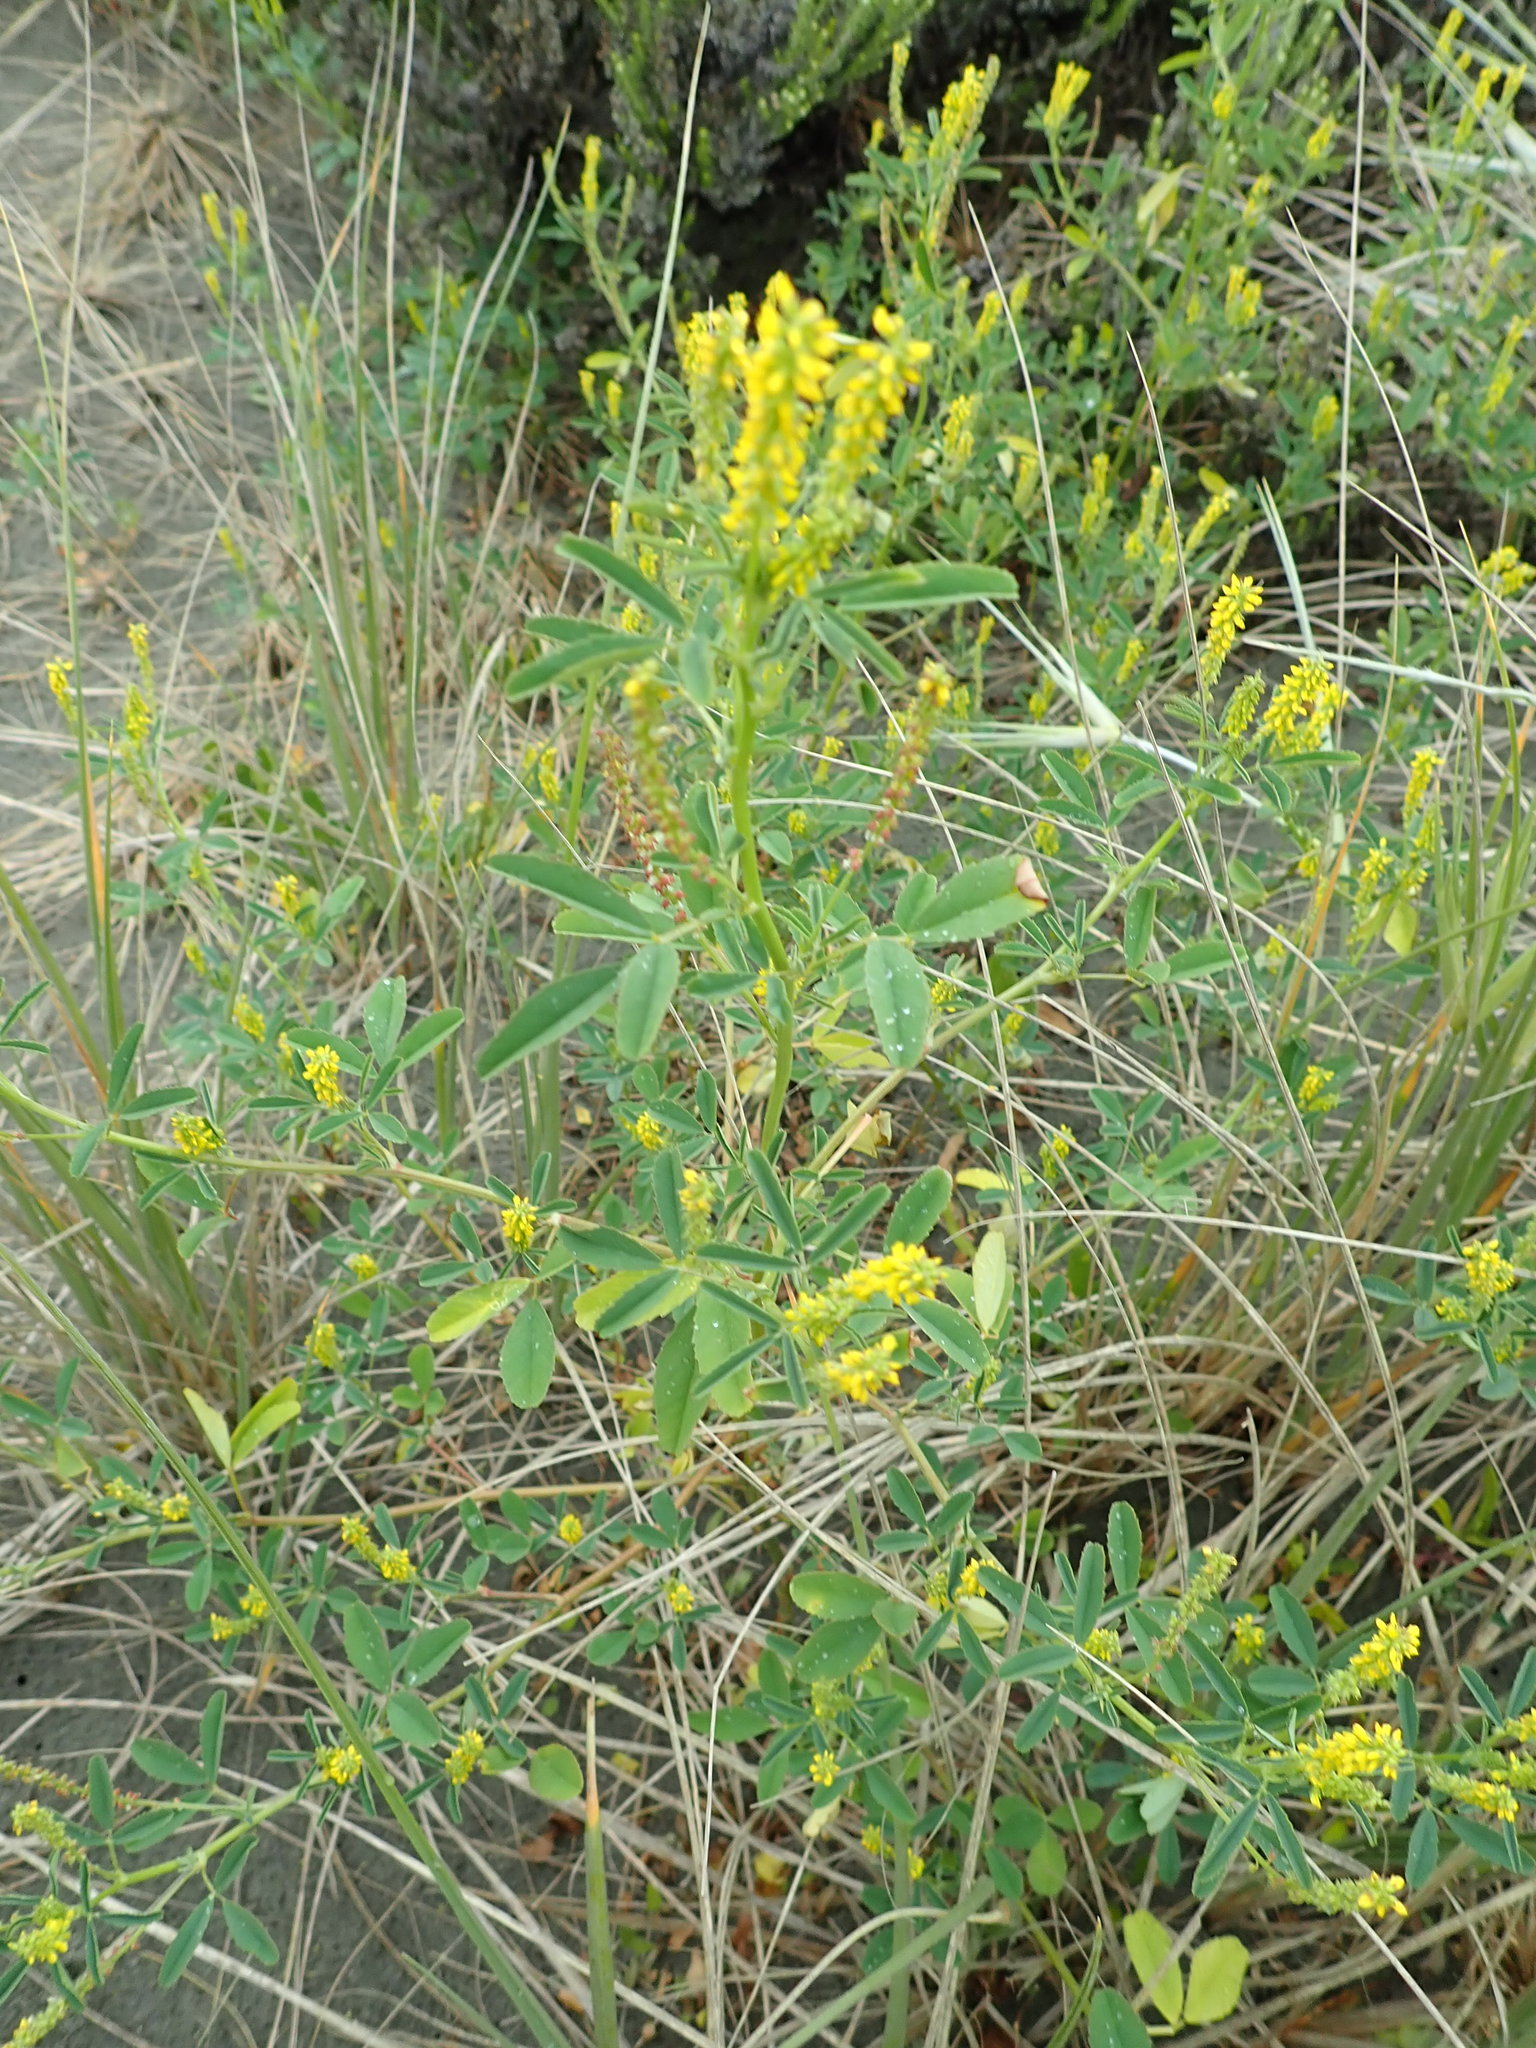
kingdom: Plantae
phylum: Tracheophyta
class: Magnoliopsida
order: Fabales
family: Fabaceae
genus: Melilotus
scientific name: Melilotus indicus
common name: Small melilot
